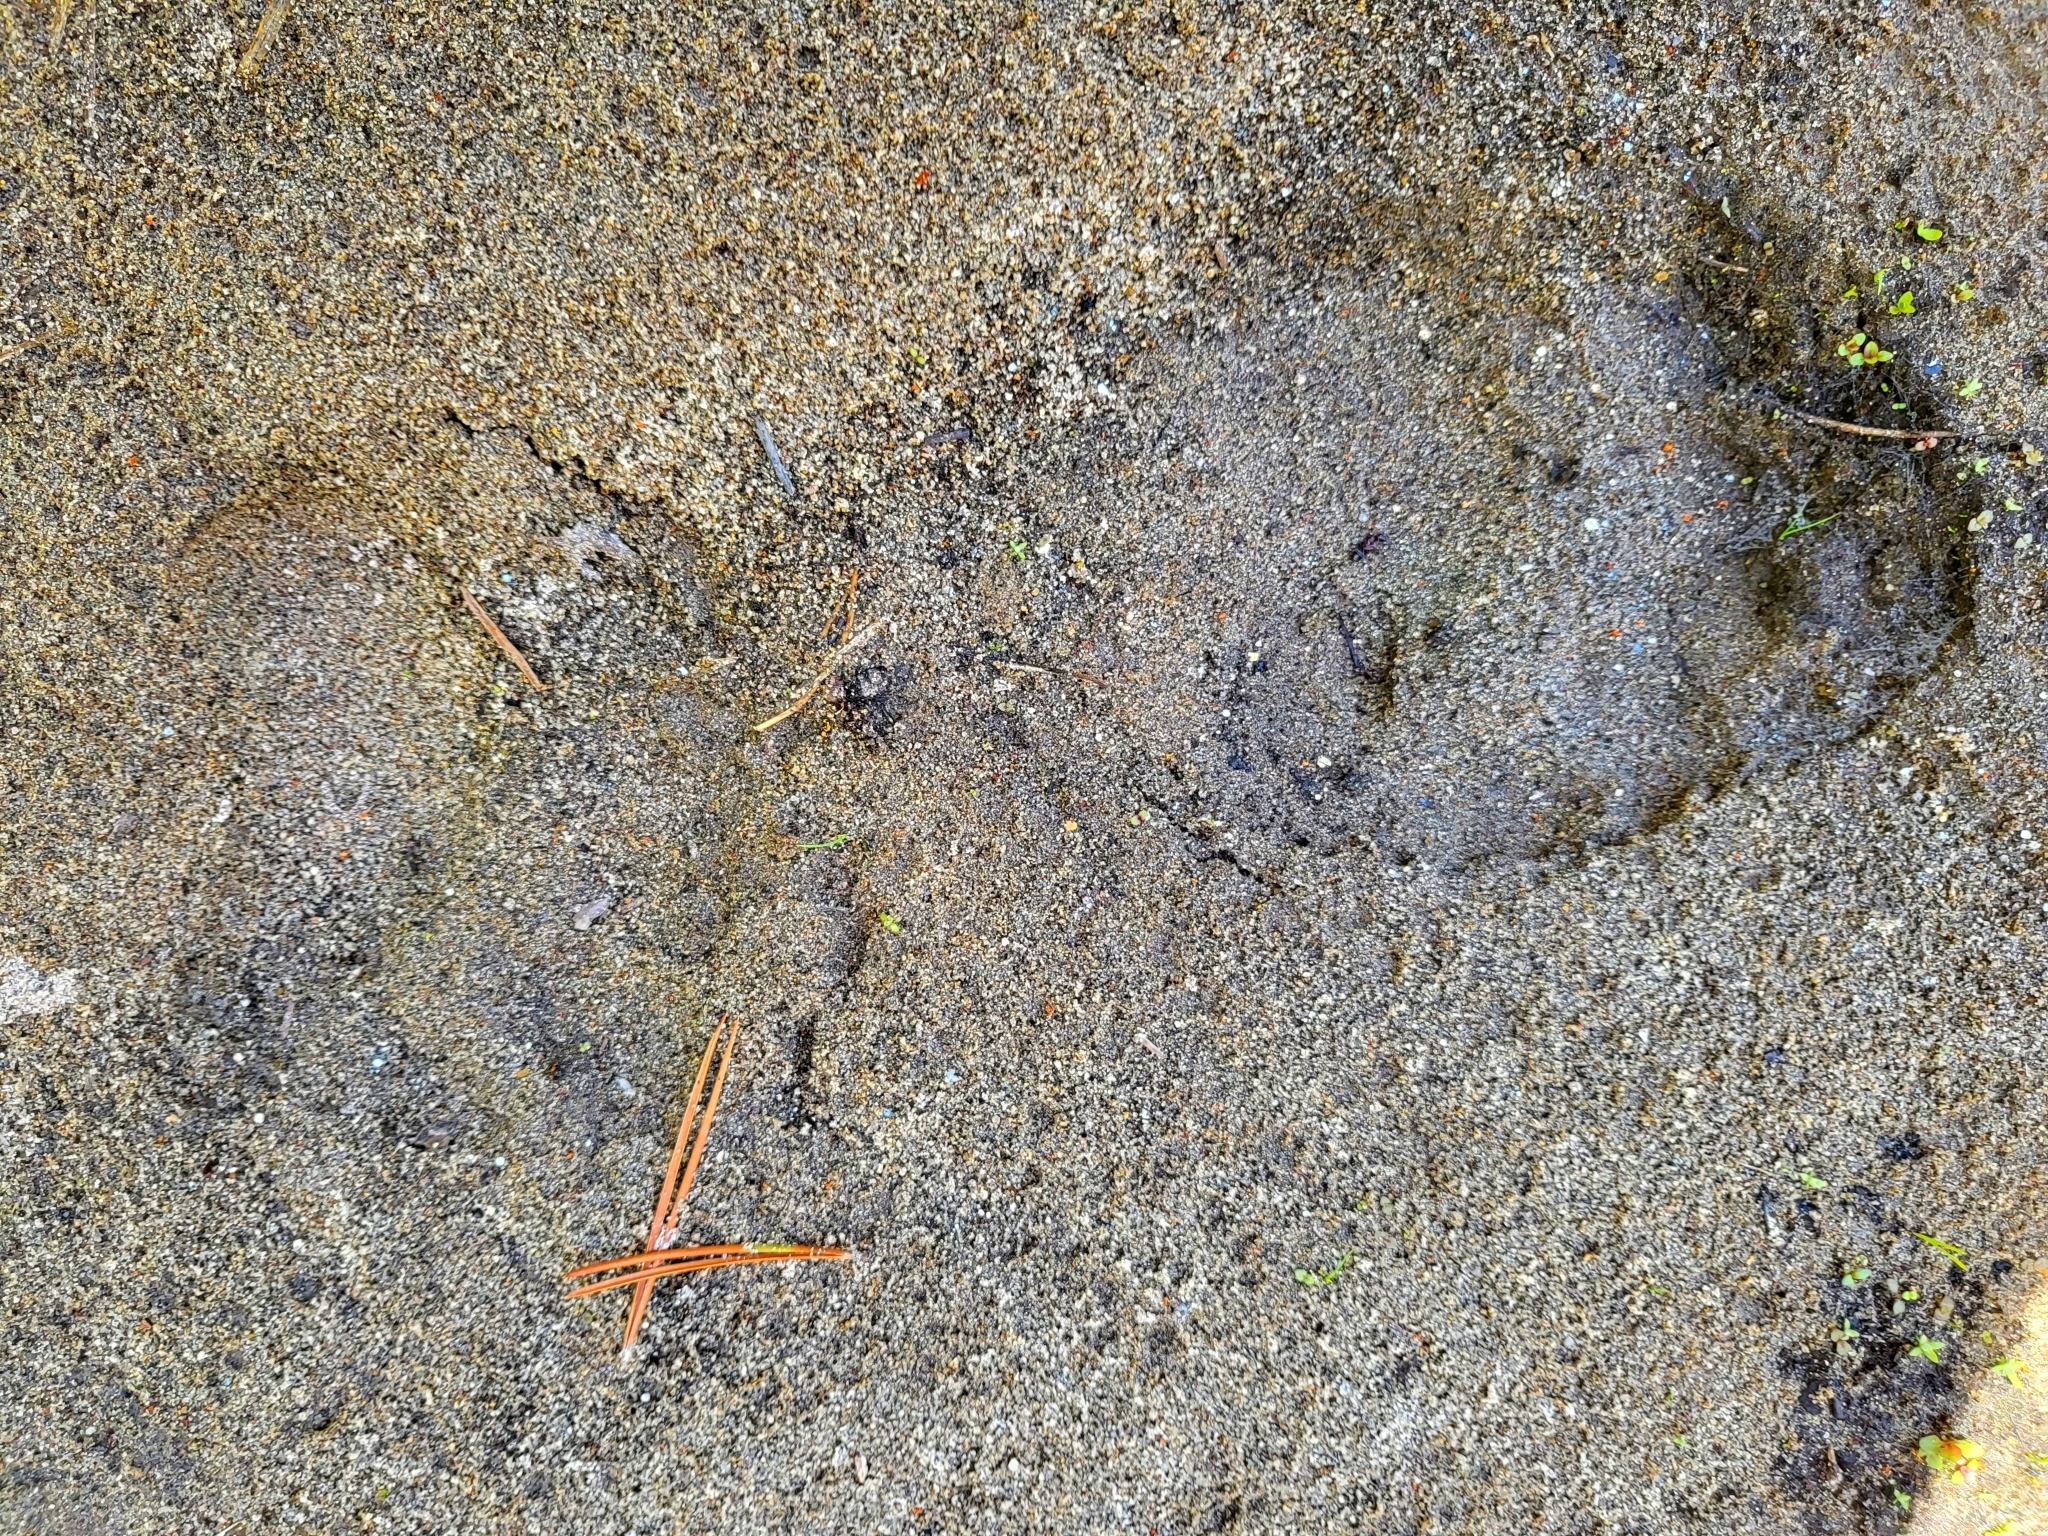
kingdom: Animalia
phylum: Chordata
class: Mammalia
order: Carnivora
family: Ursidae
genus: Ursus
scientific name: Ursus americanus
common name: American black bear
